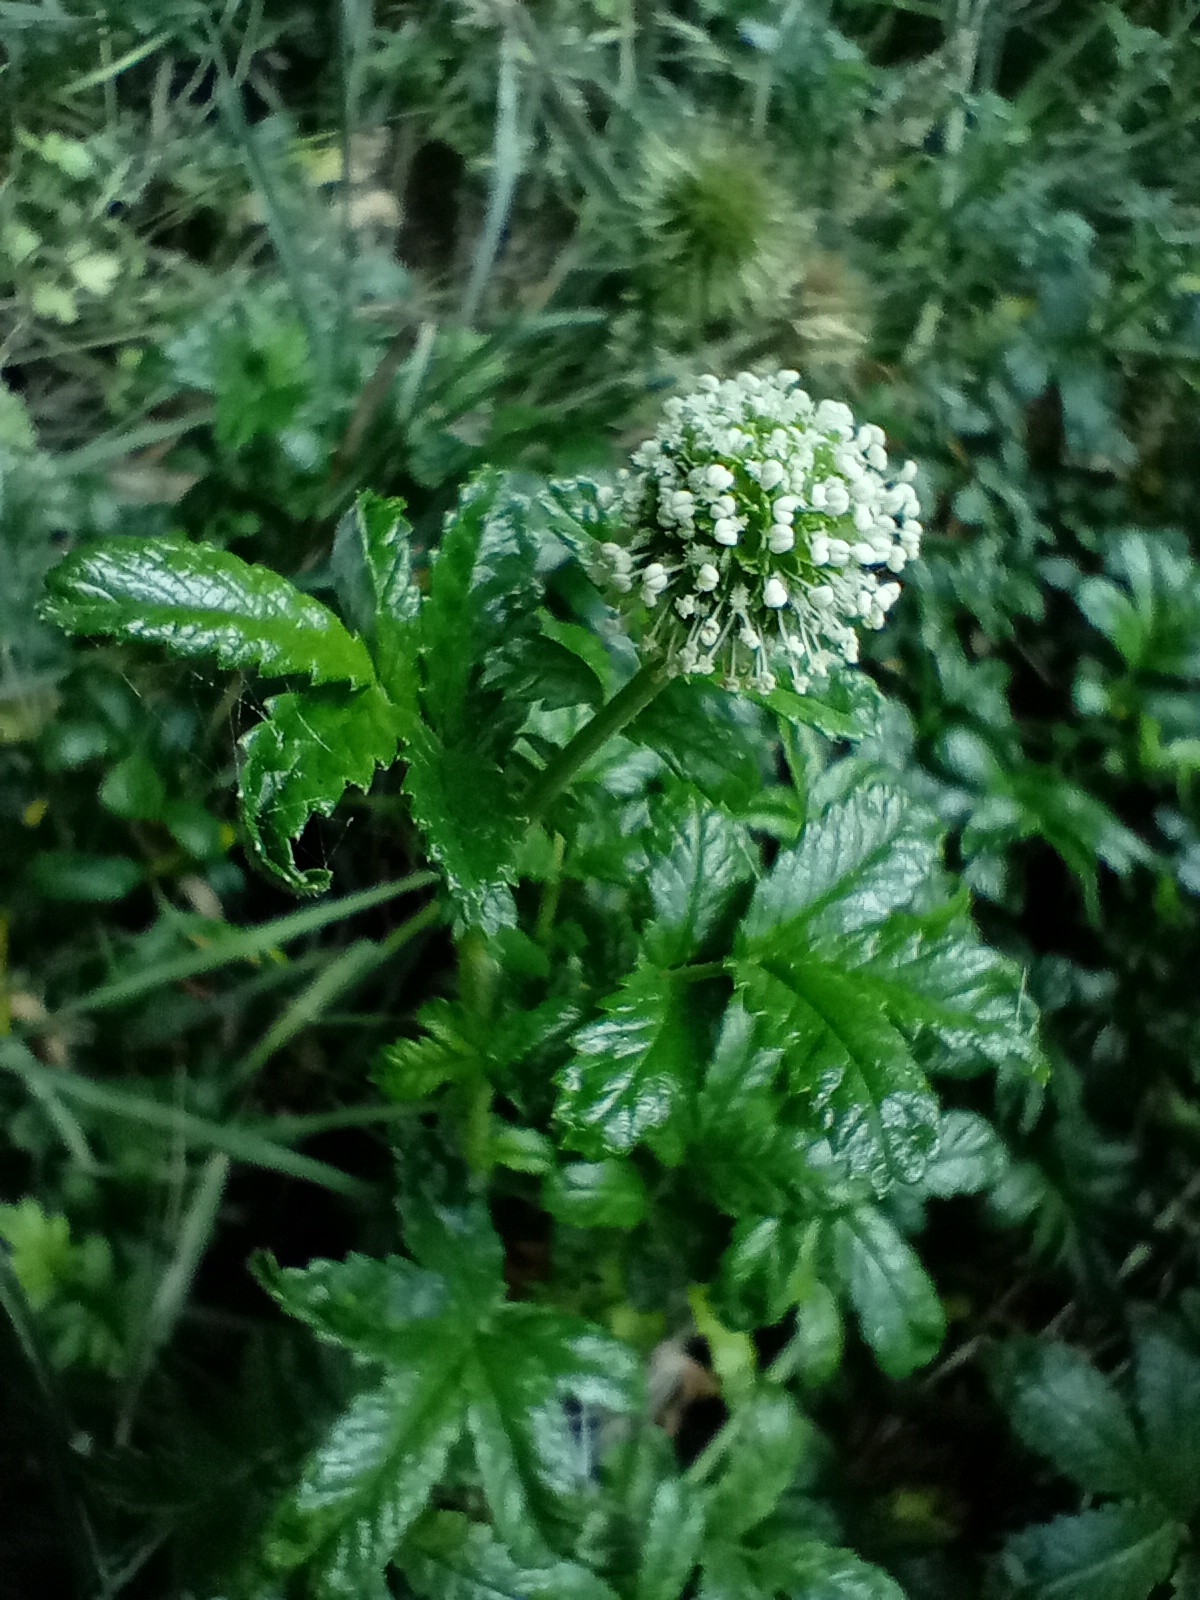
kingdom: Plantae
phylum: Tracheophyta
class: Magnoliopsida
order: Rosales
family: Rosaceae
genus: Acaena
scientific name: Acaena pallida
